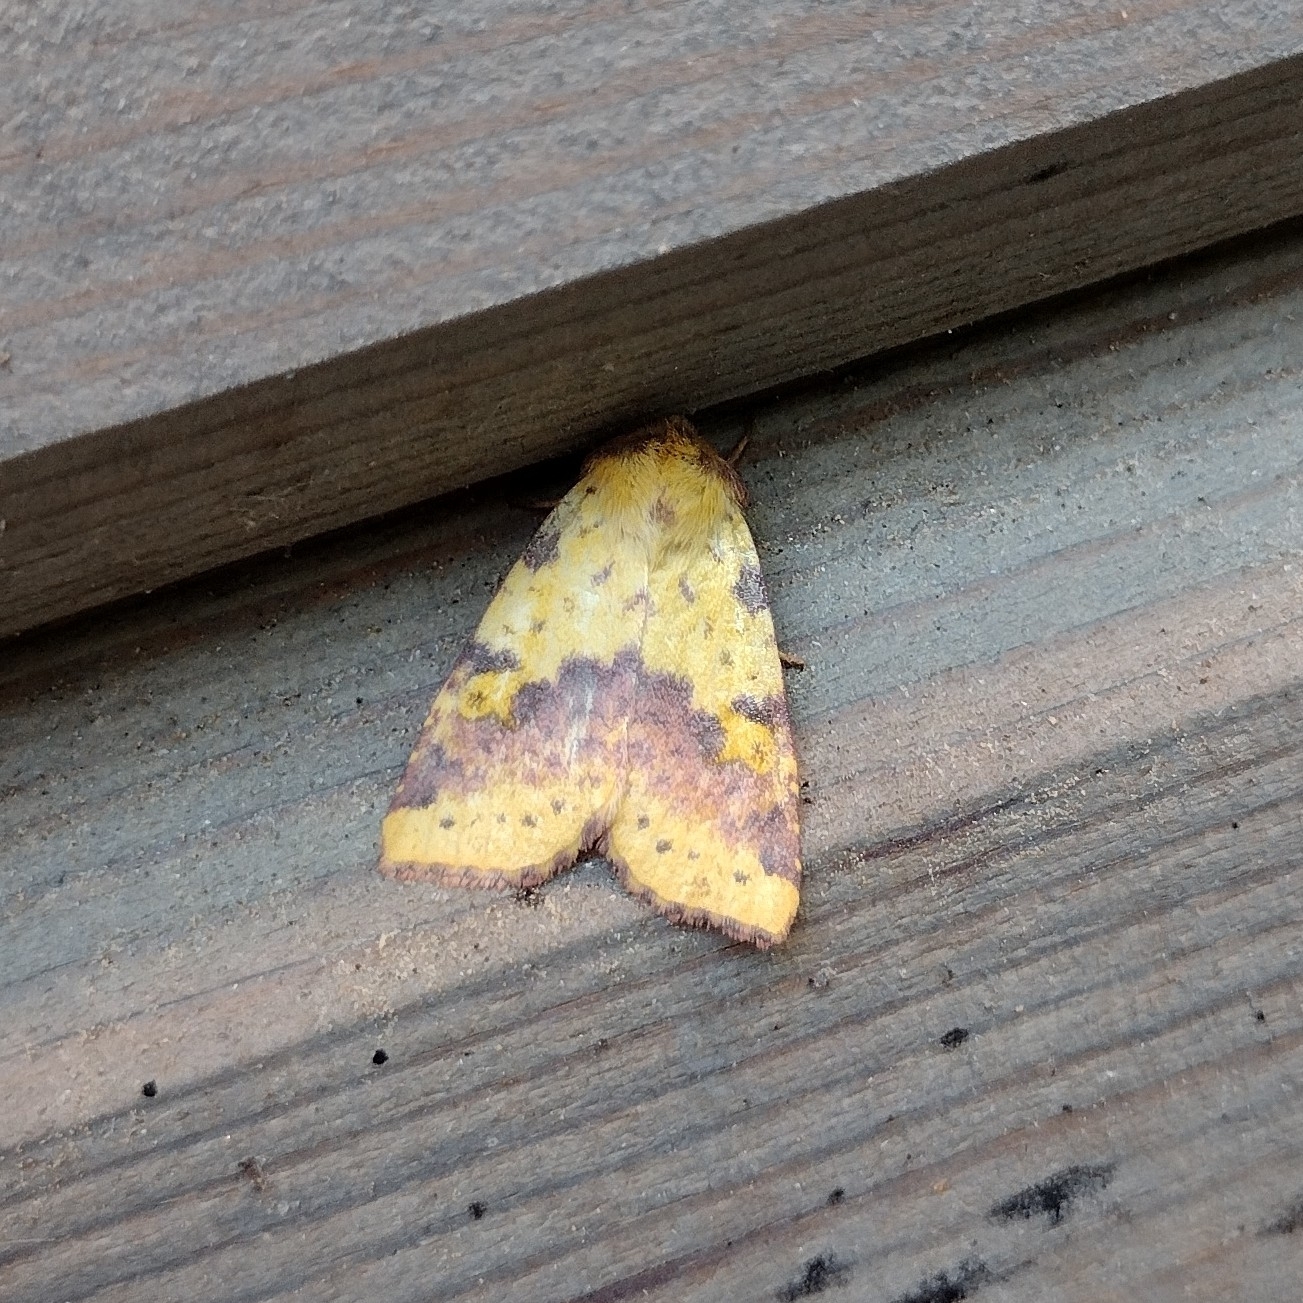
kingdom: Animalia
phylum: Arthropoda
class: Insecta
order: Lepidoptera
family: Noctuidae
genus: Xanthia
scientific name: Xanthia togata
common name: Pink-barred sallow
